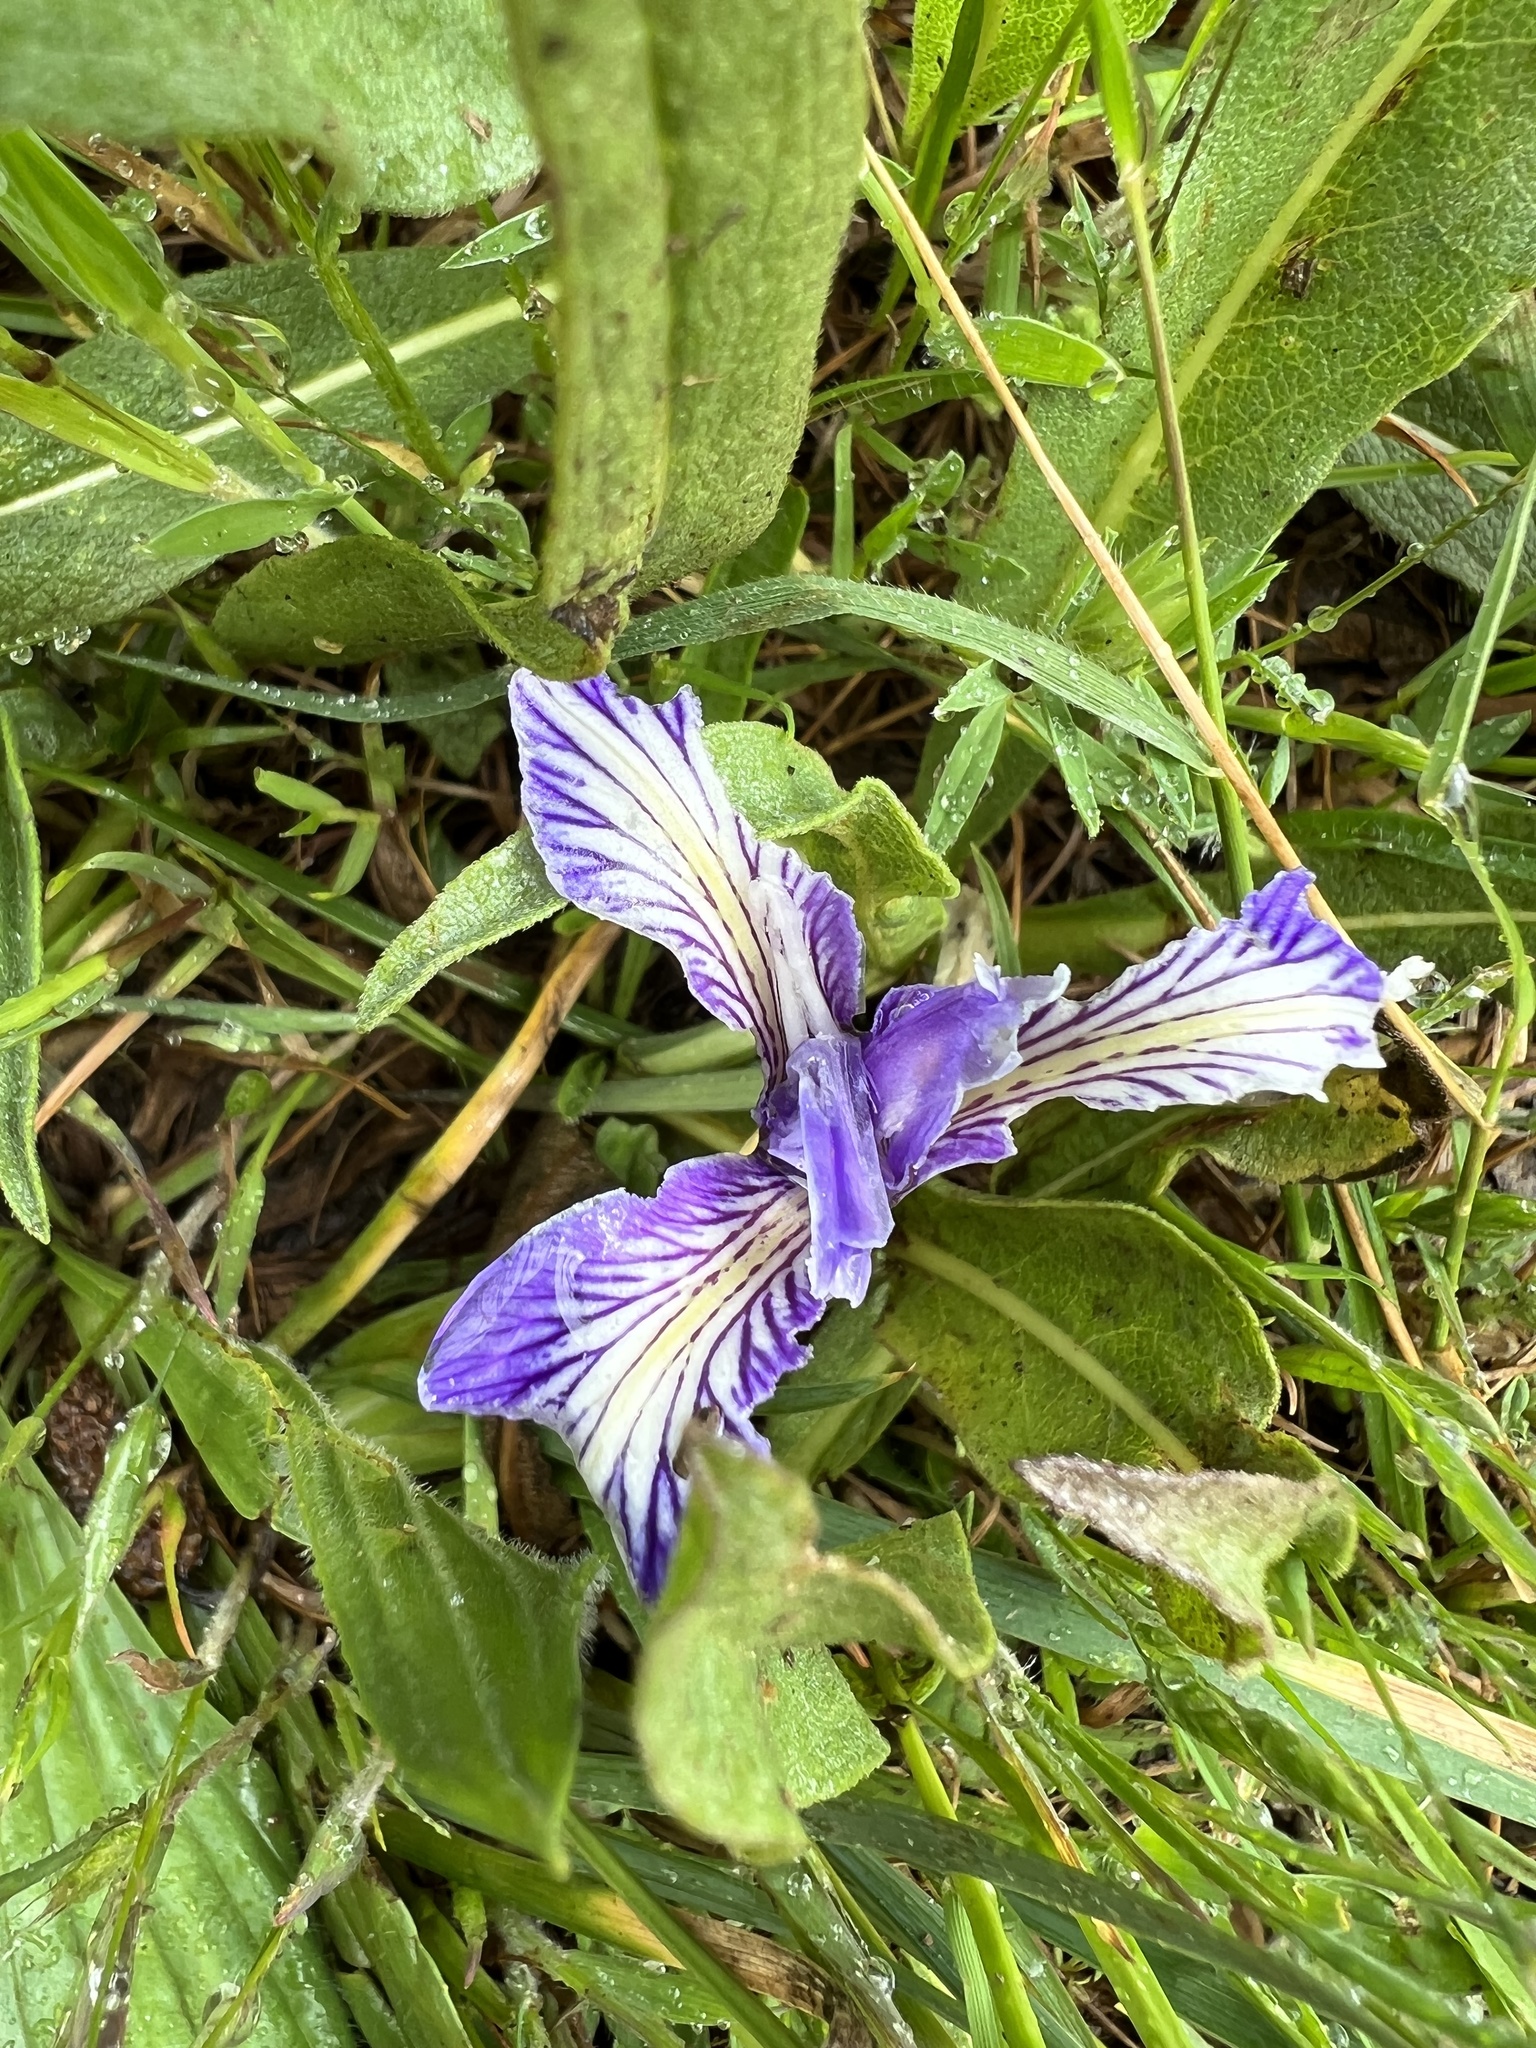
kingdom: Plantae
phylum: Tracheophyta
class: Liliopsida
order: Asparagales
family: Iridaceae
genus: Iris
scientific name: Iris macrosiphon
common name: Ground iris
